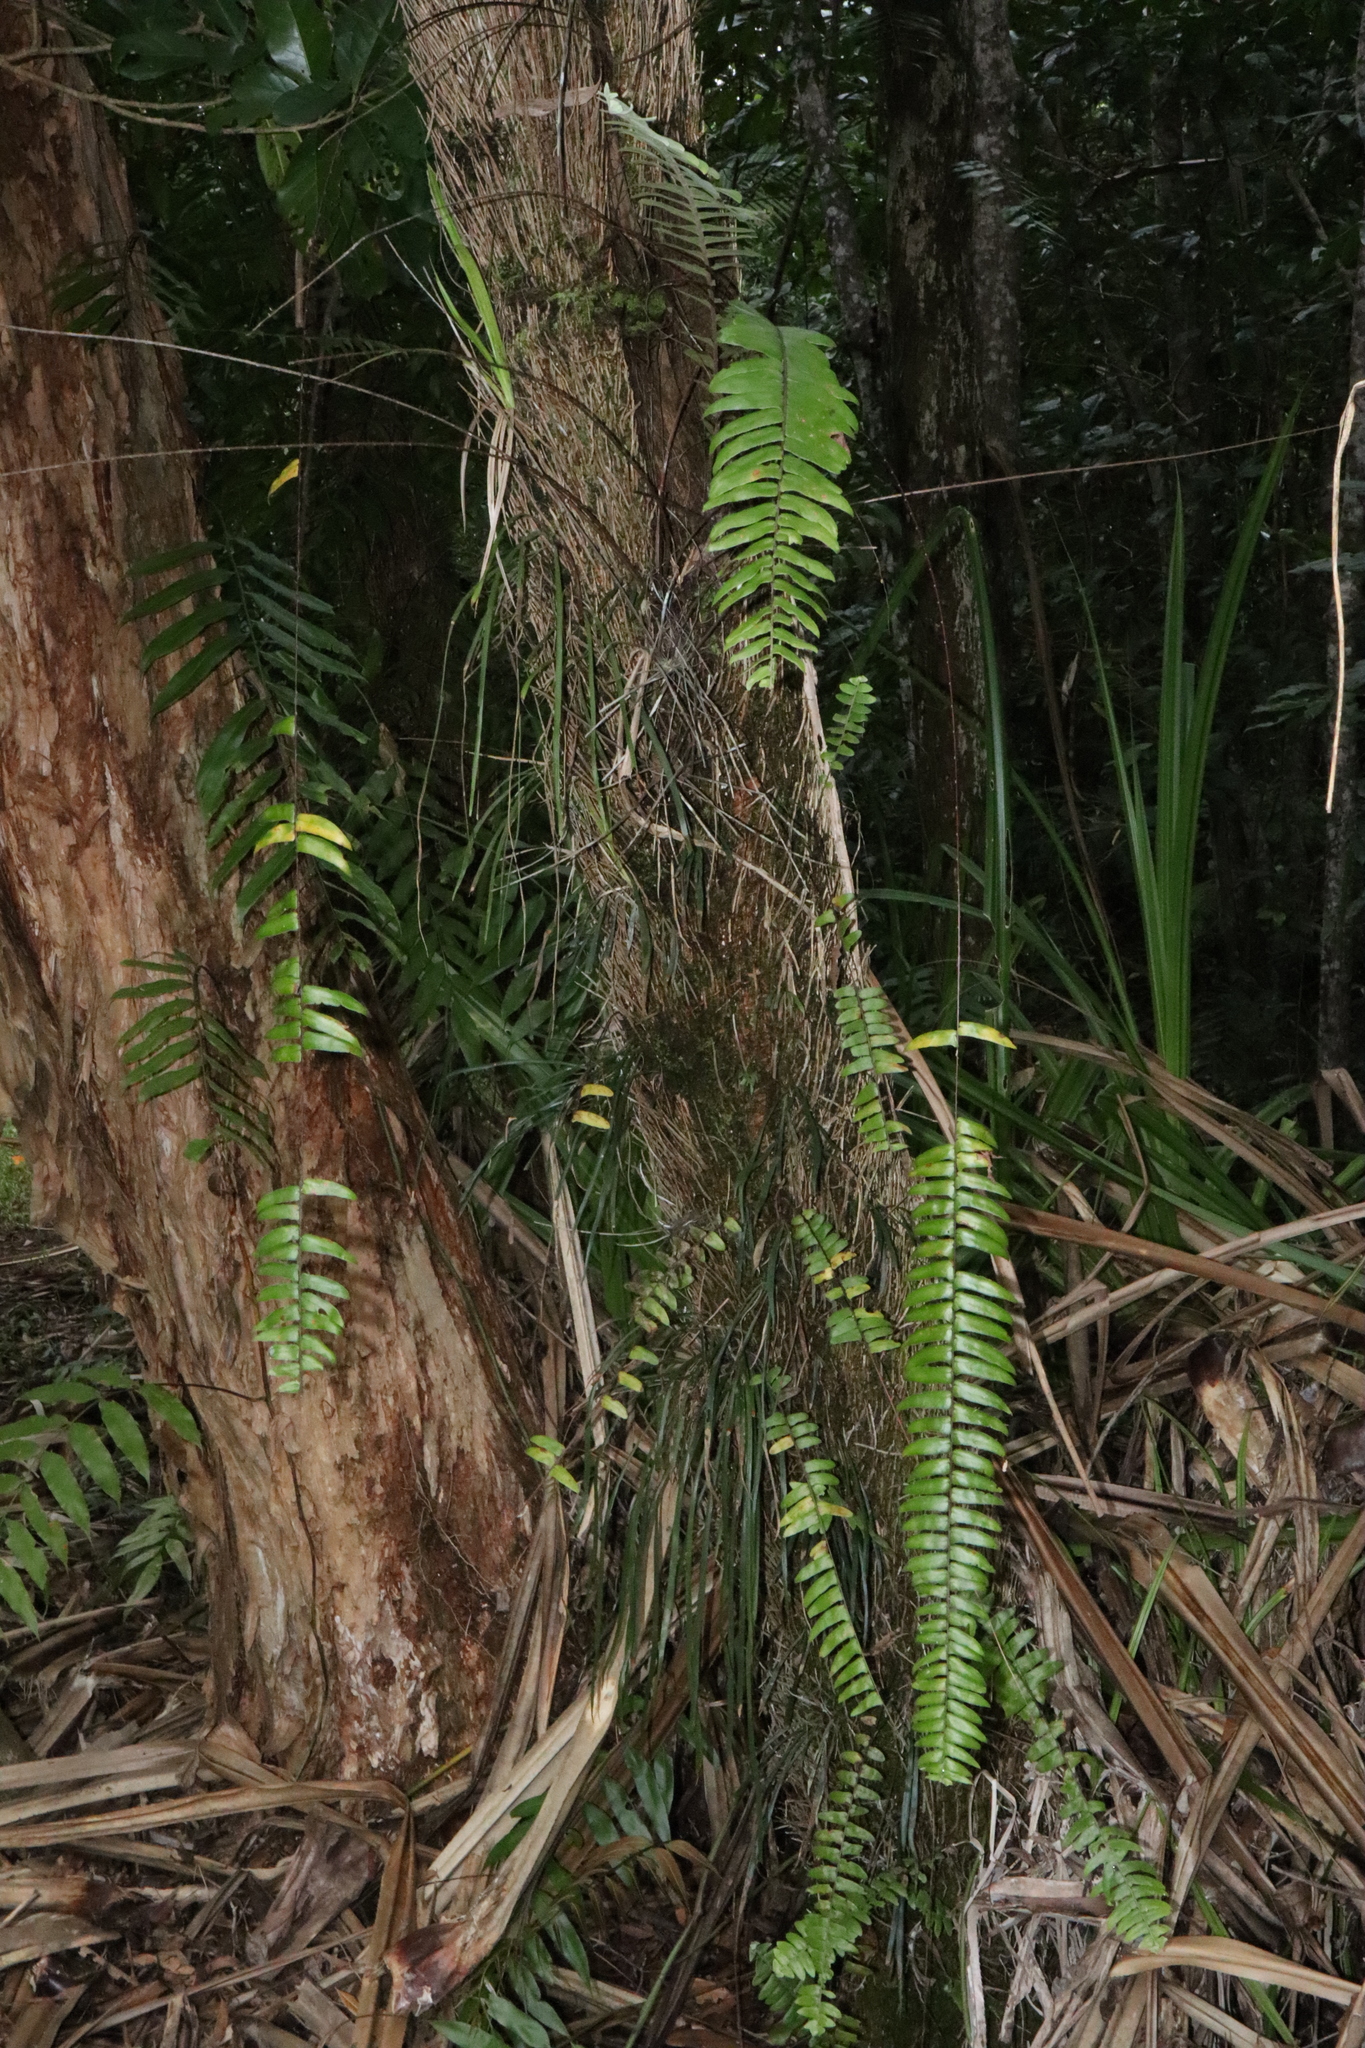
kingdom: Plantae
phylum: Tracheophyta
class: Polypodiopsida
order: Polypodiales
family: Nephrolepidaceae
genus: Nephrolepis
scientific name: Nephrolepis acutifolia
